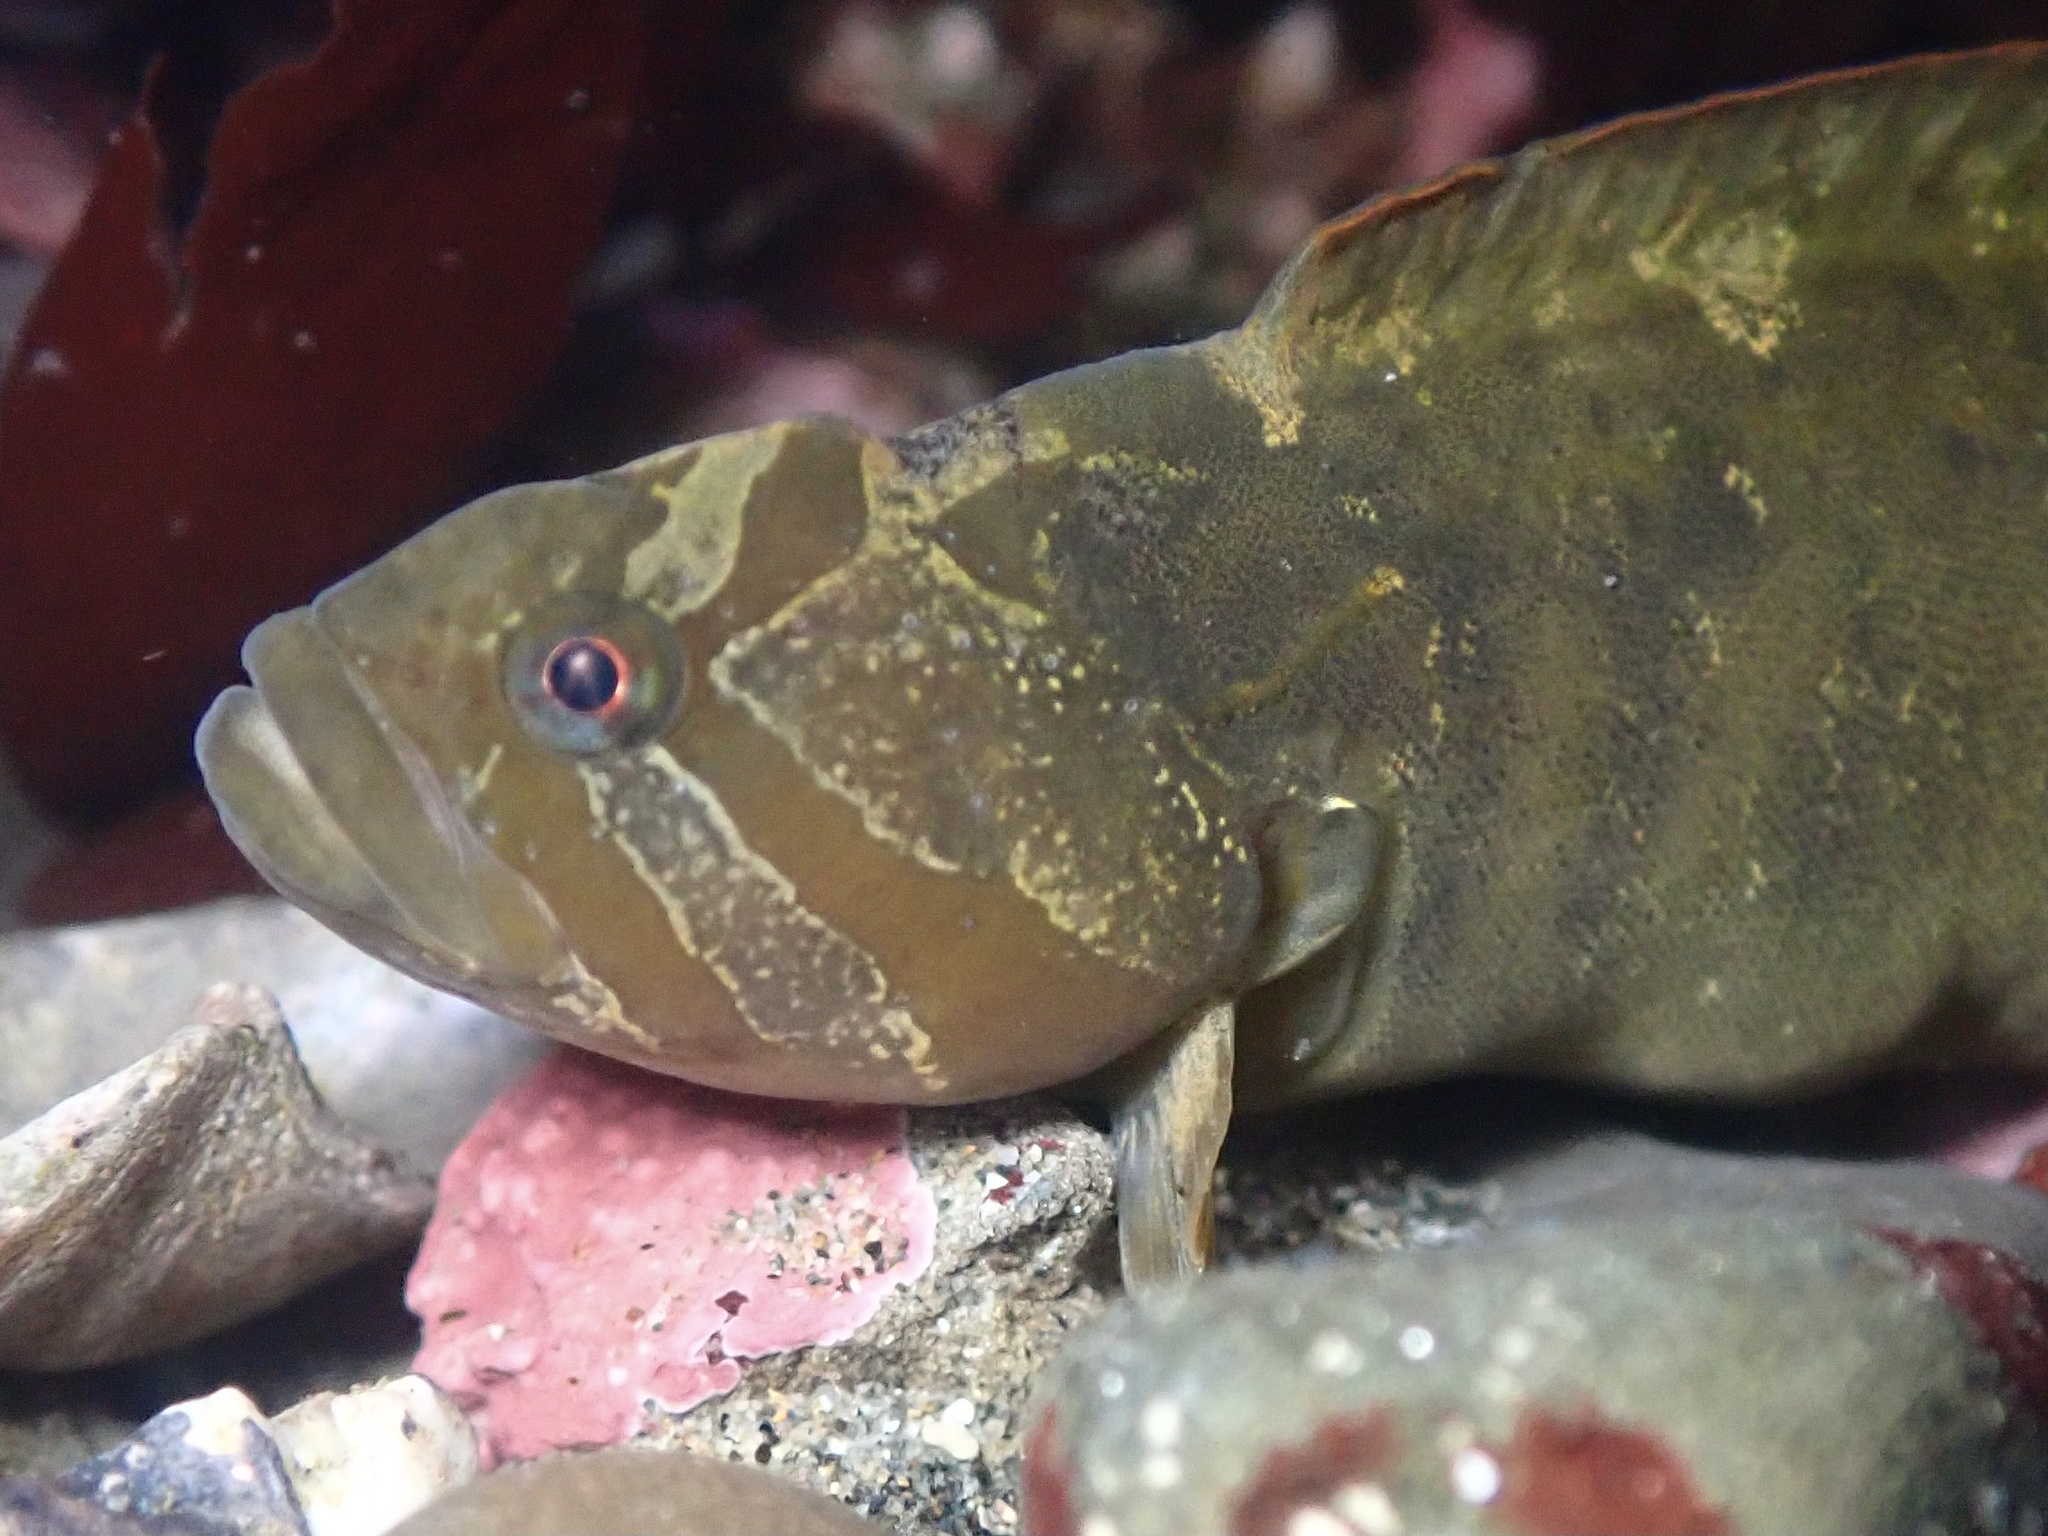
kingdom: Animalia
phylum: Chordata
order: Perciformes
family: Stichaeidae
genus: Cebidichthys
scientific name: Cebidichthys violaceus
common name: Monkeyface prickleback
